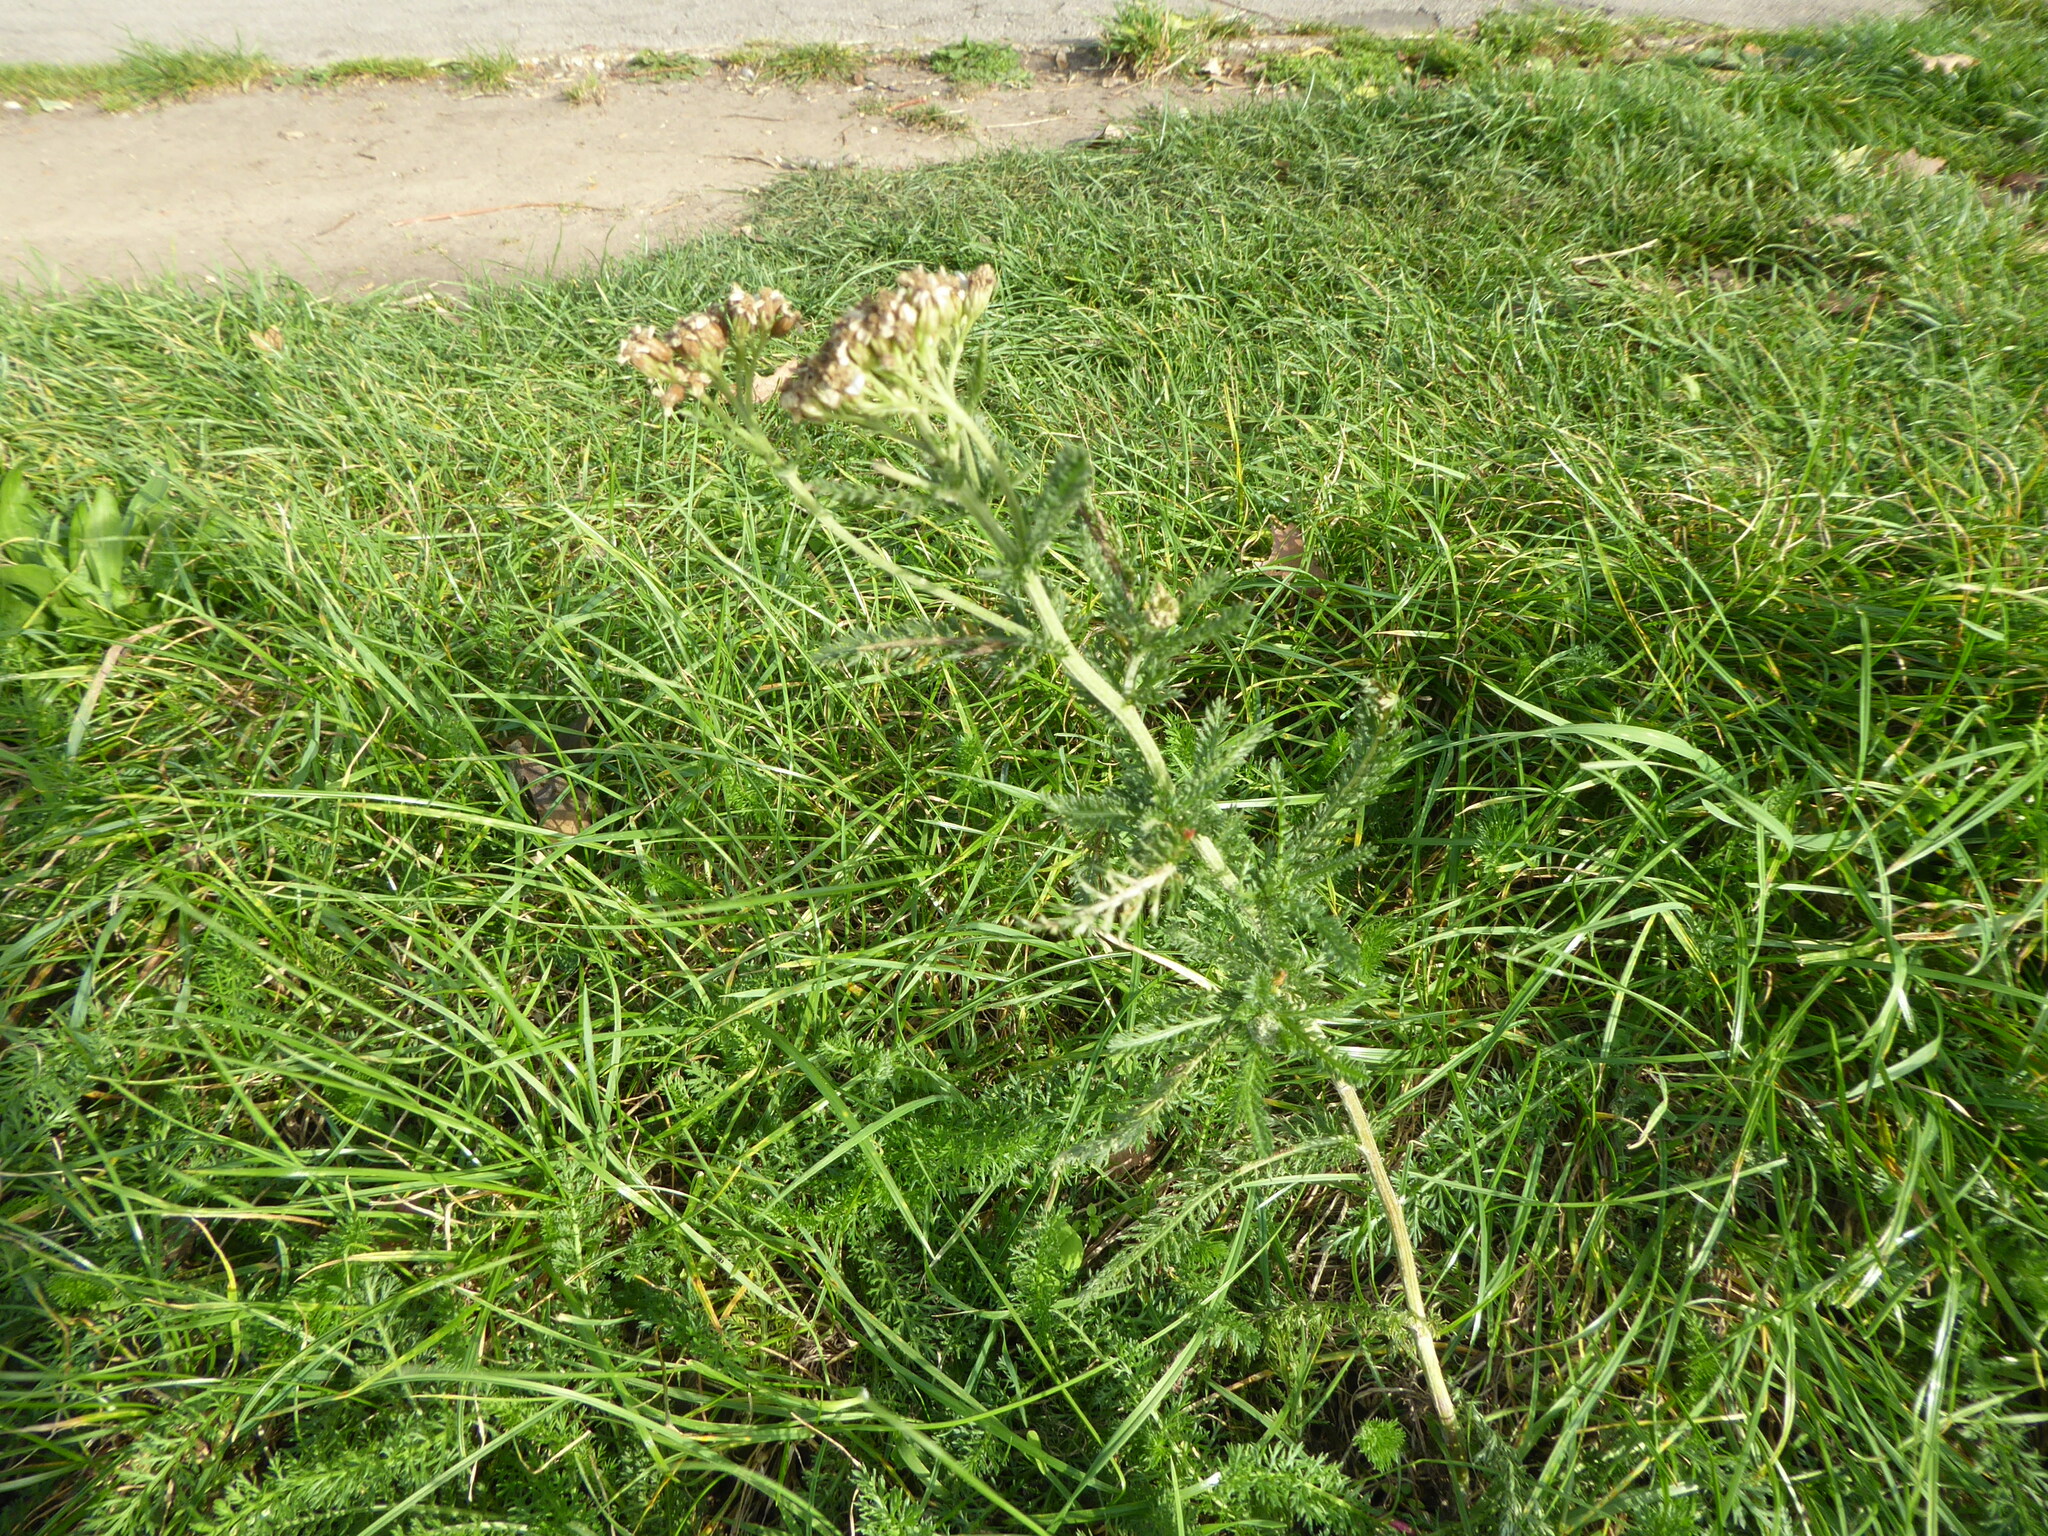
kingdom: Plantae
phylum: Tracheophyta
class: Magnoliopsida
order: Asterales
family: Asteraceae
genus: Achillea
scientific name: Achillea millefolium
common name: Yarrow
